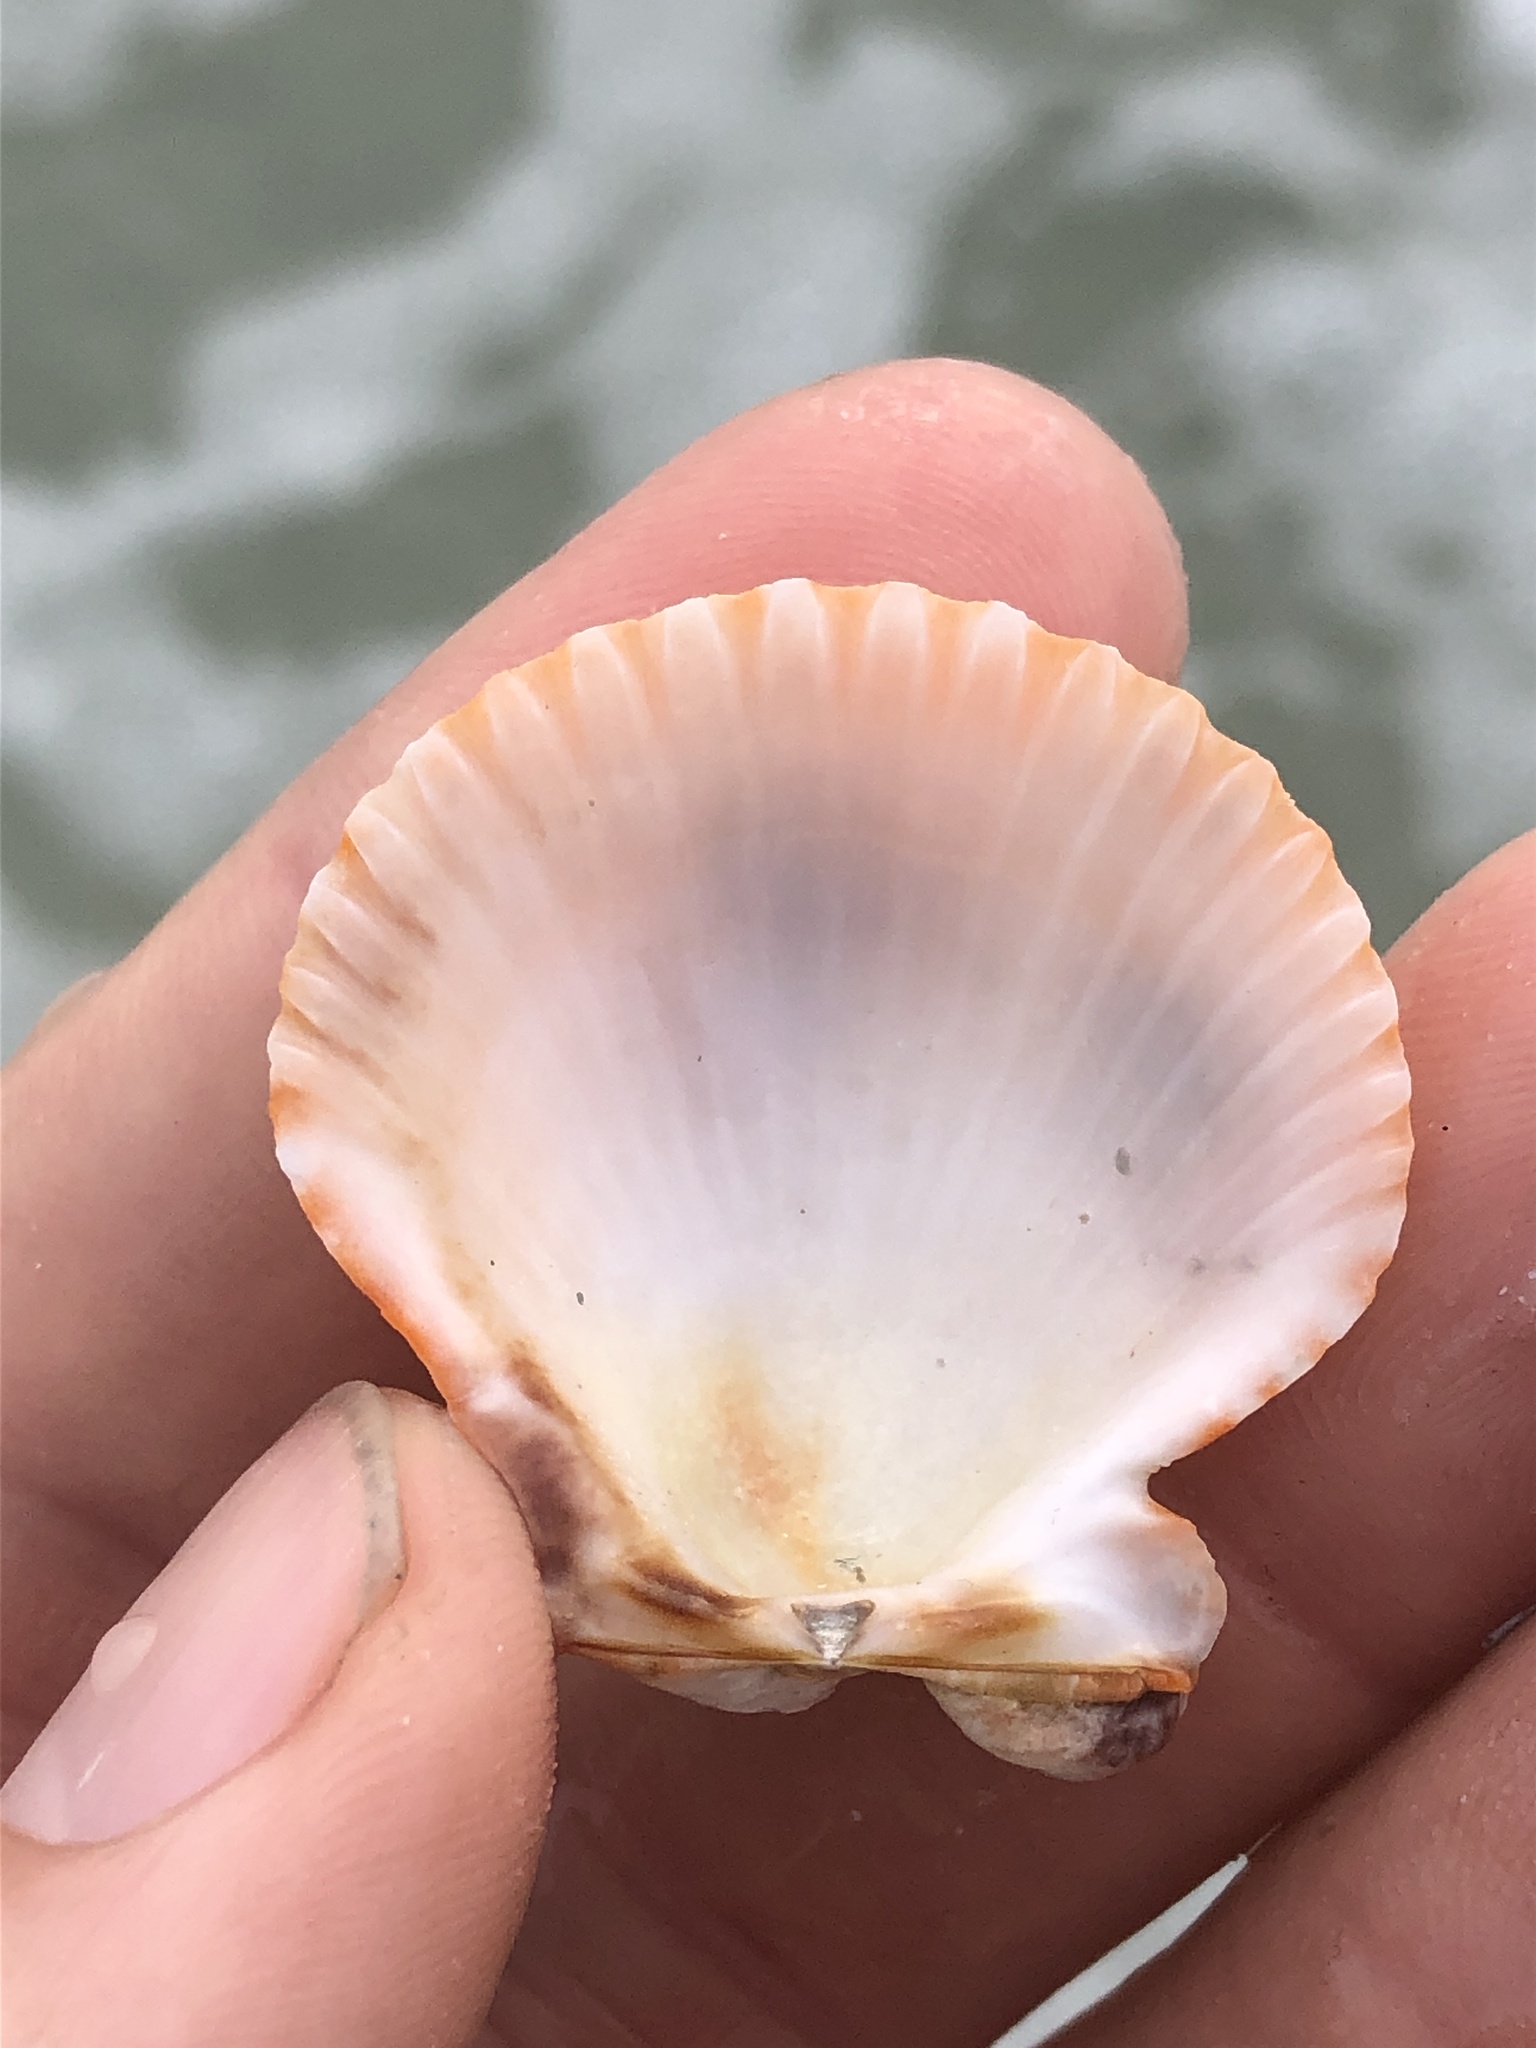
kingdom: Animalia
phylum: Mollusca
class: Bivalvia
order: Pectinida
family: Pectinidae
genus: Argopecten
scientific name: Argopecten gibbus
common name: Atlantic calico scallop
